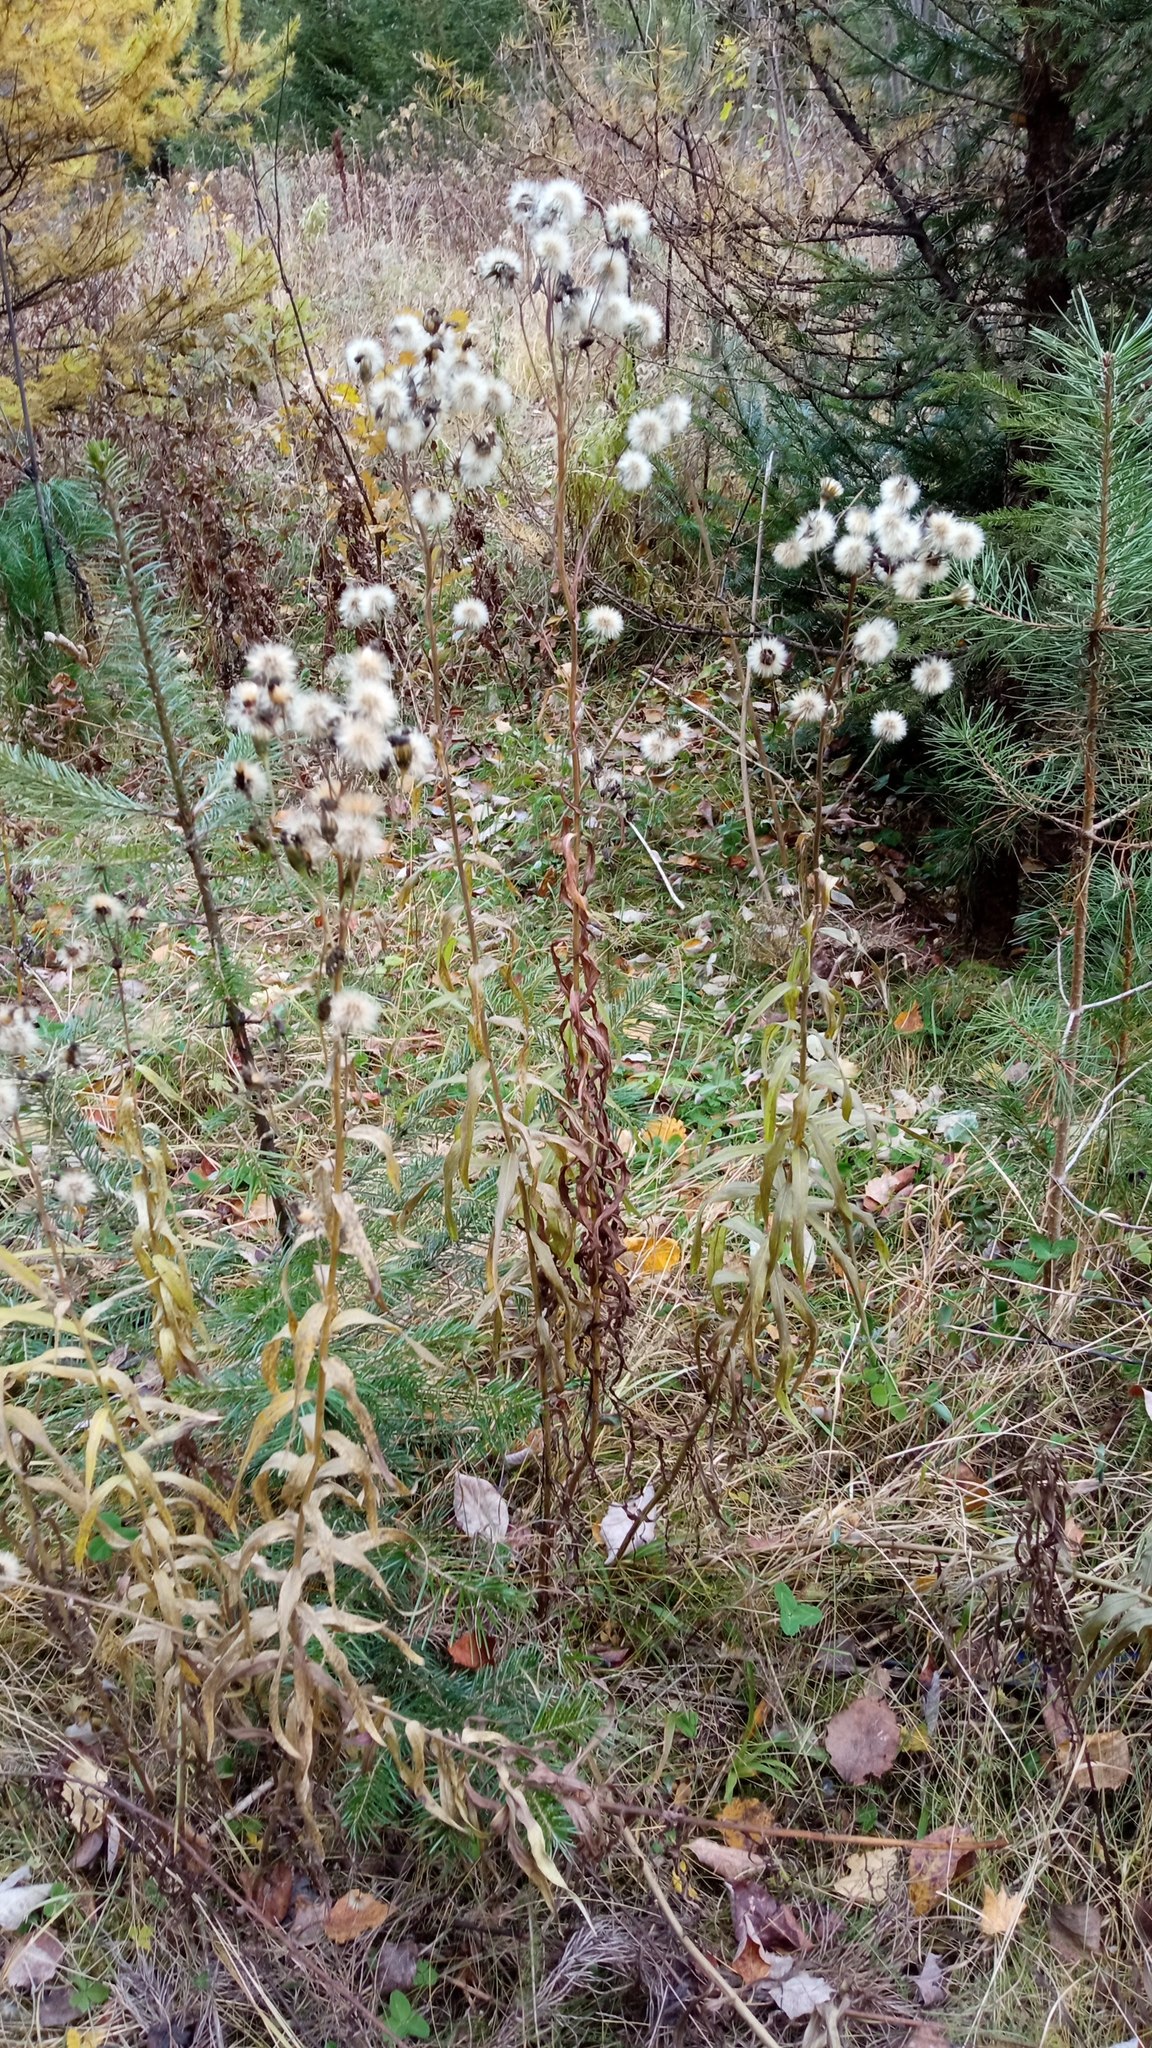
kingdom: Plantae
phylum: Tracheophyta
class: Magnoliopsida
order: Asterales
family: Asteraceae
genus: Hieracium
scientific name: Hieracium umbellatum
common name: Northern hawkweed
